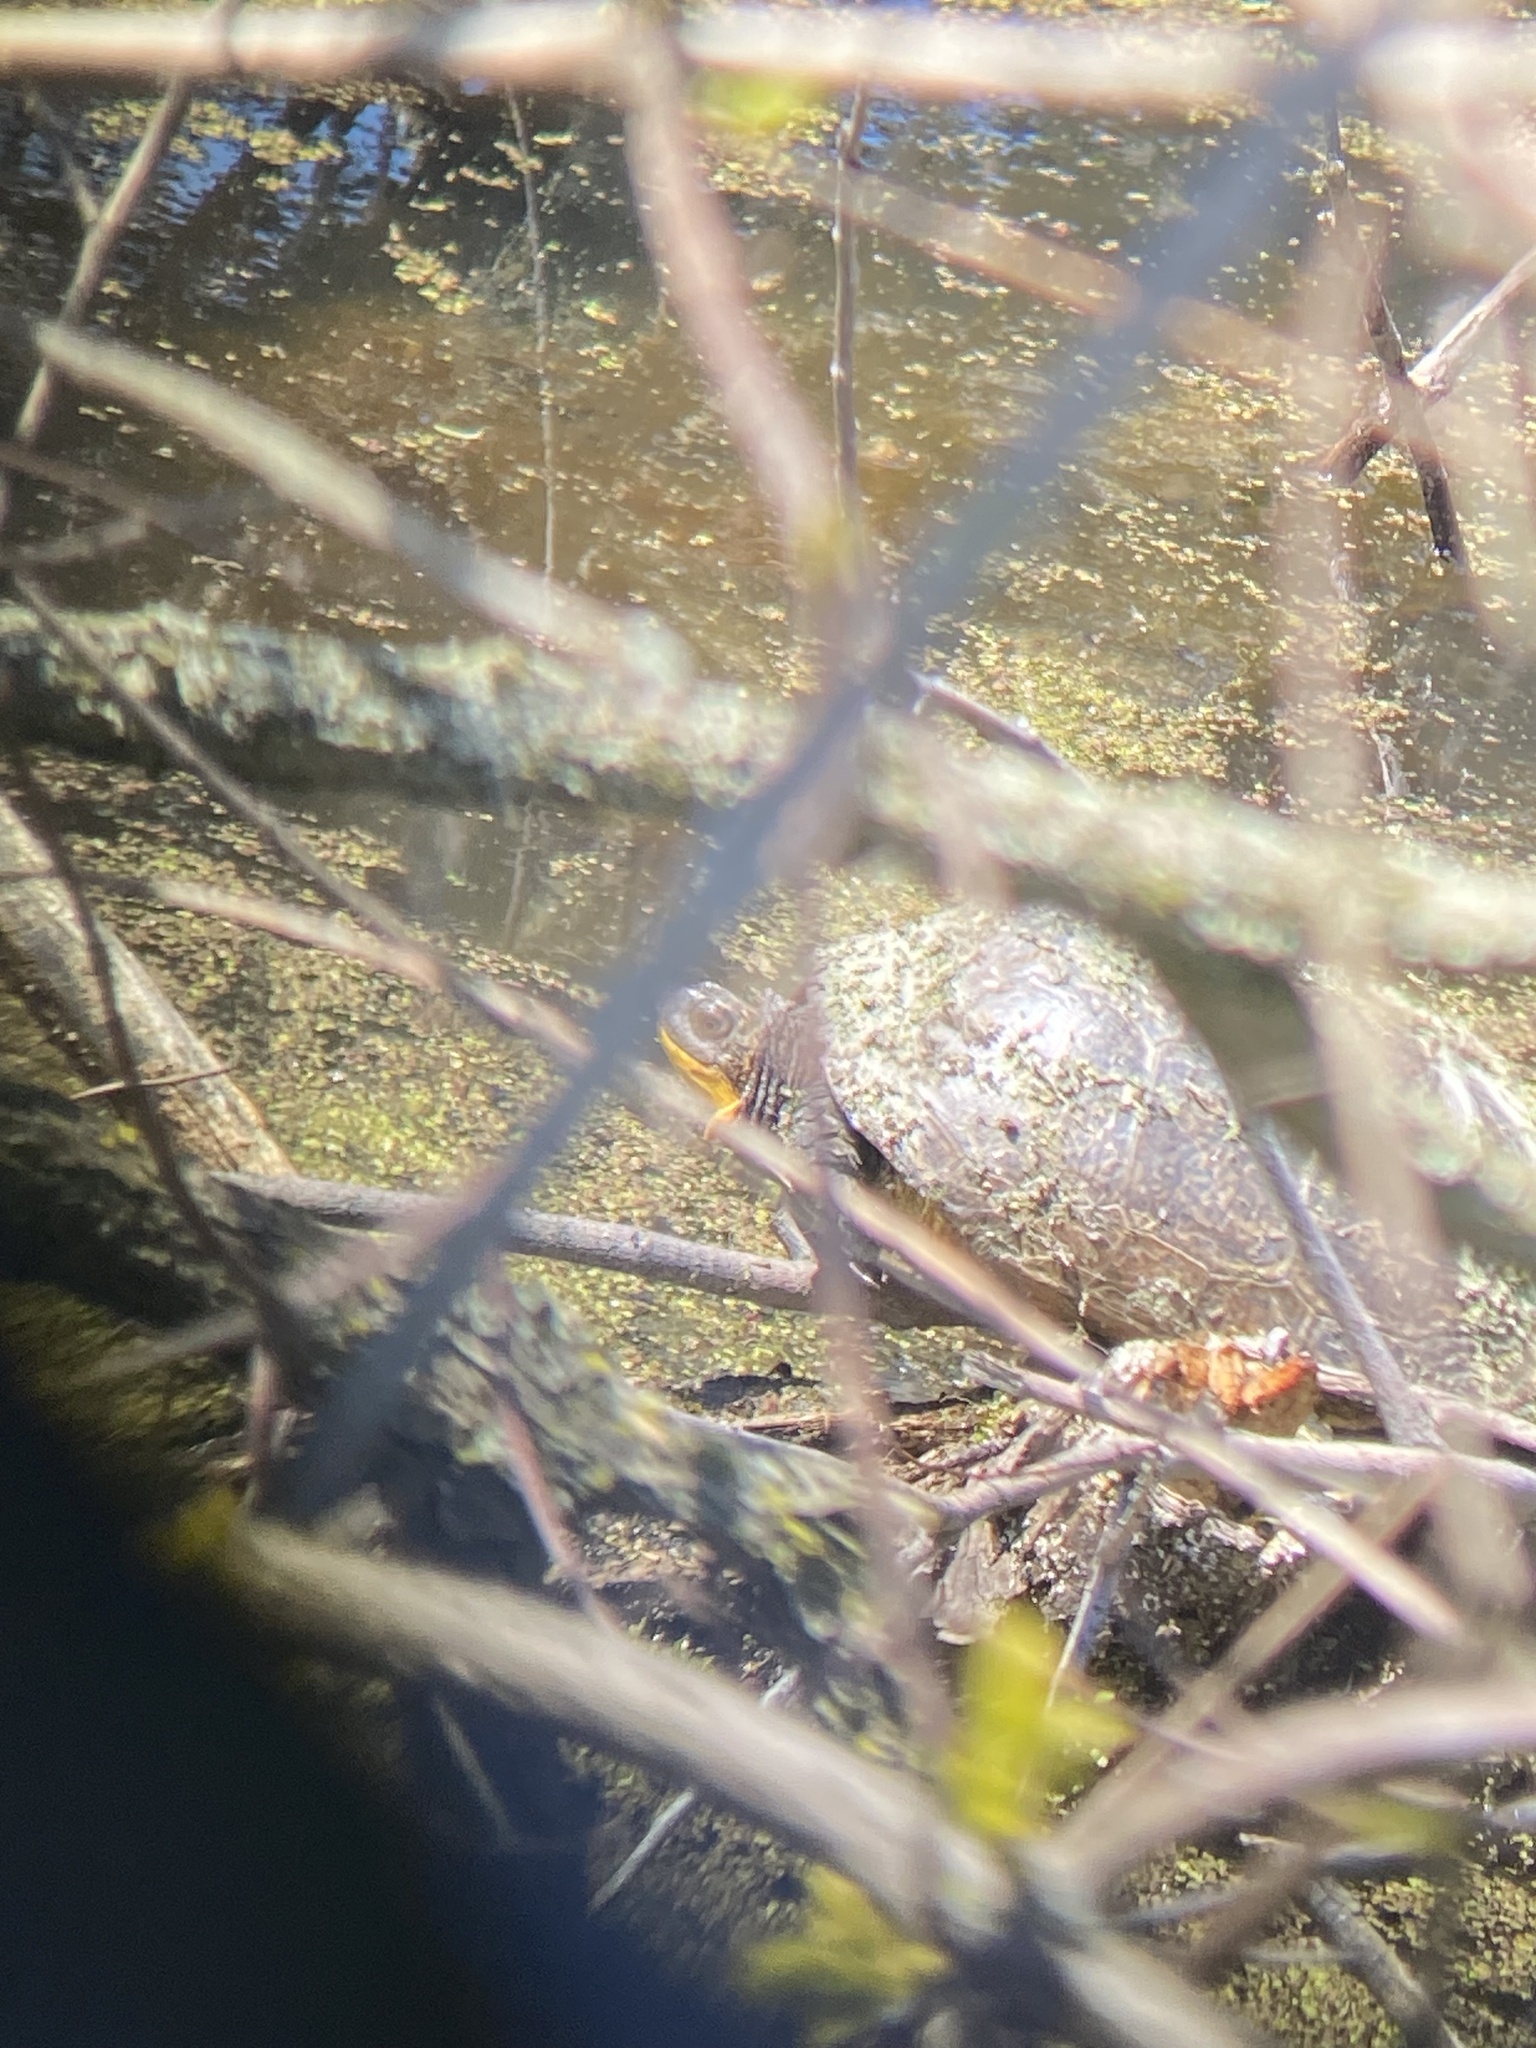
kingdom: Animalia
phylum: Chordata
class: Testudines
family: Emydidae
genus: Emys
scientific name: Emys blandingii
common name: Blanding's turtle
